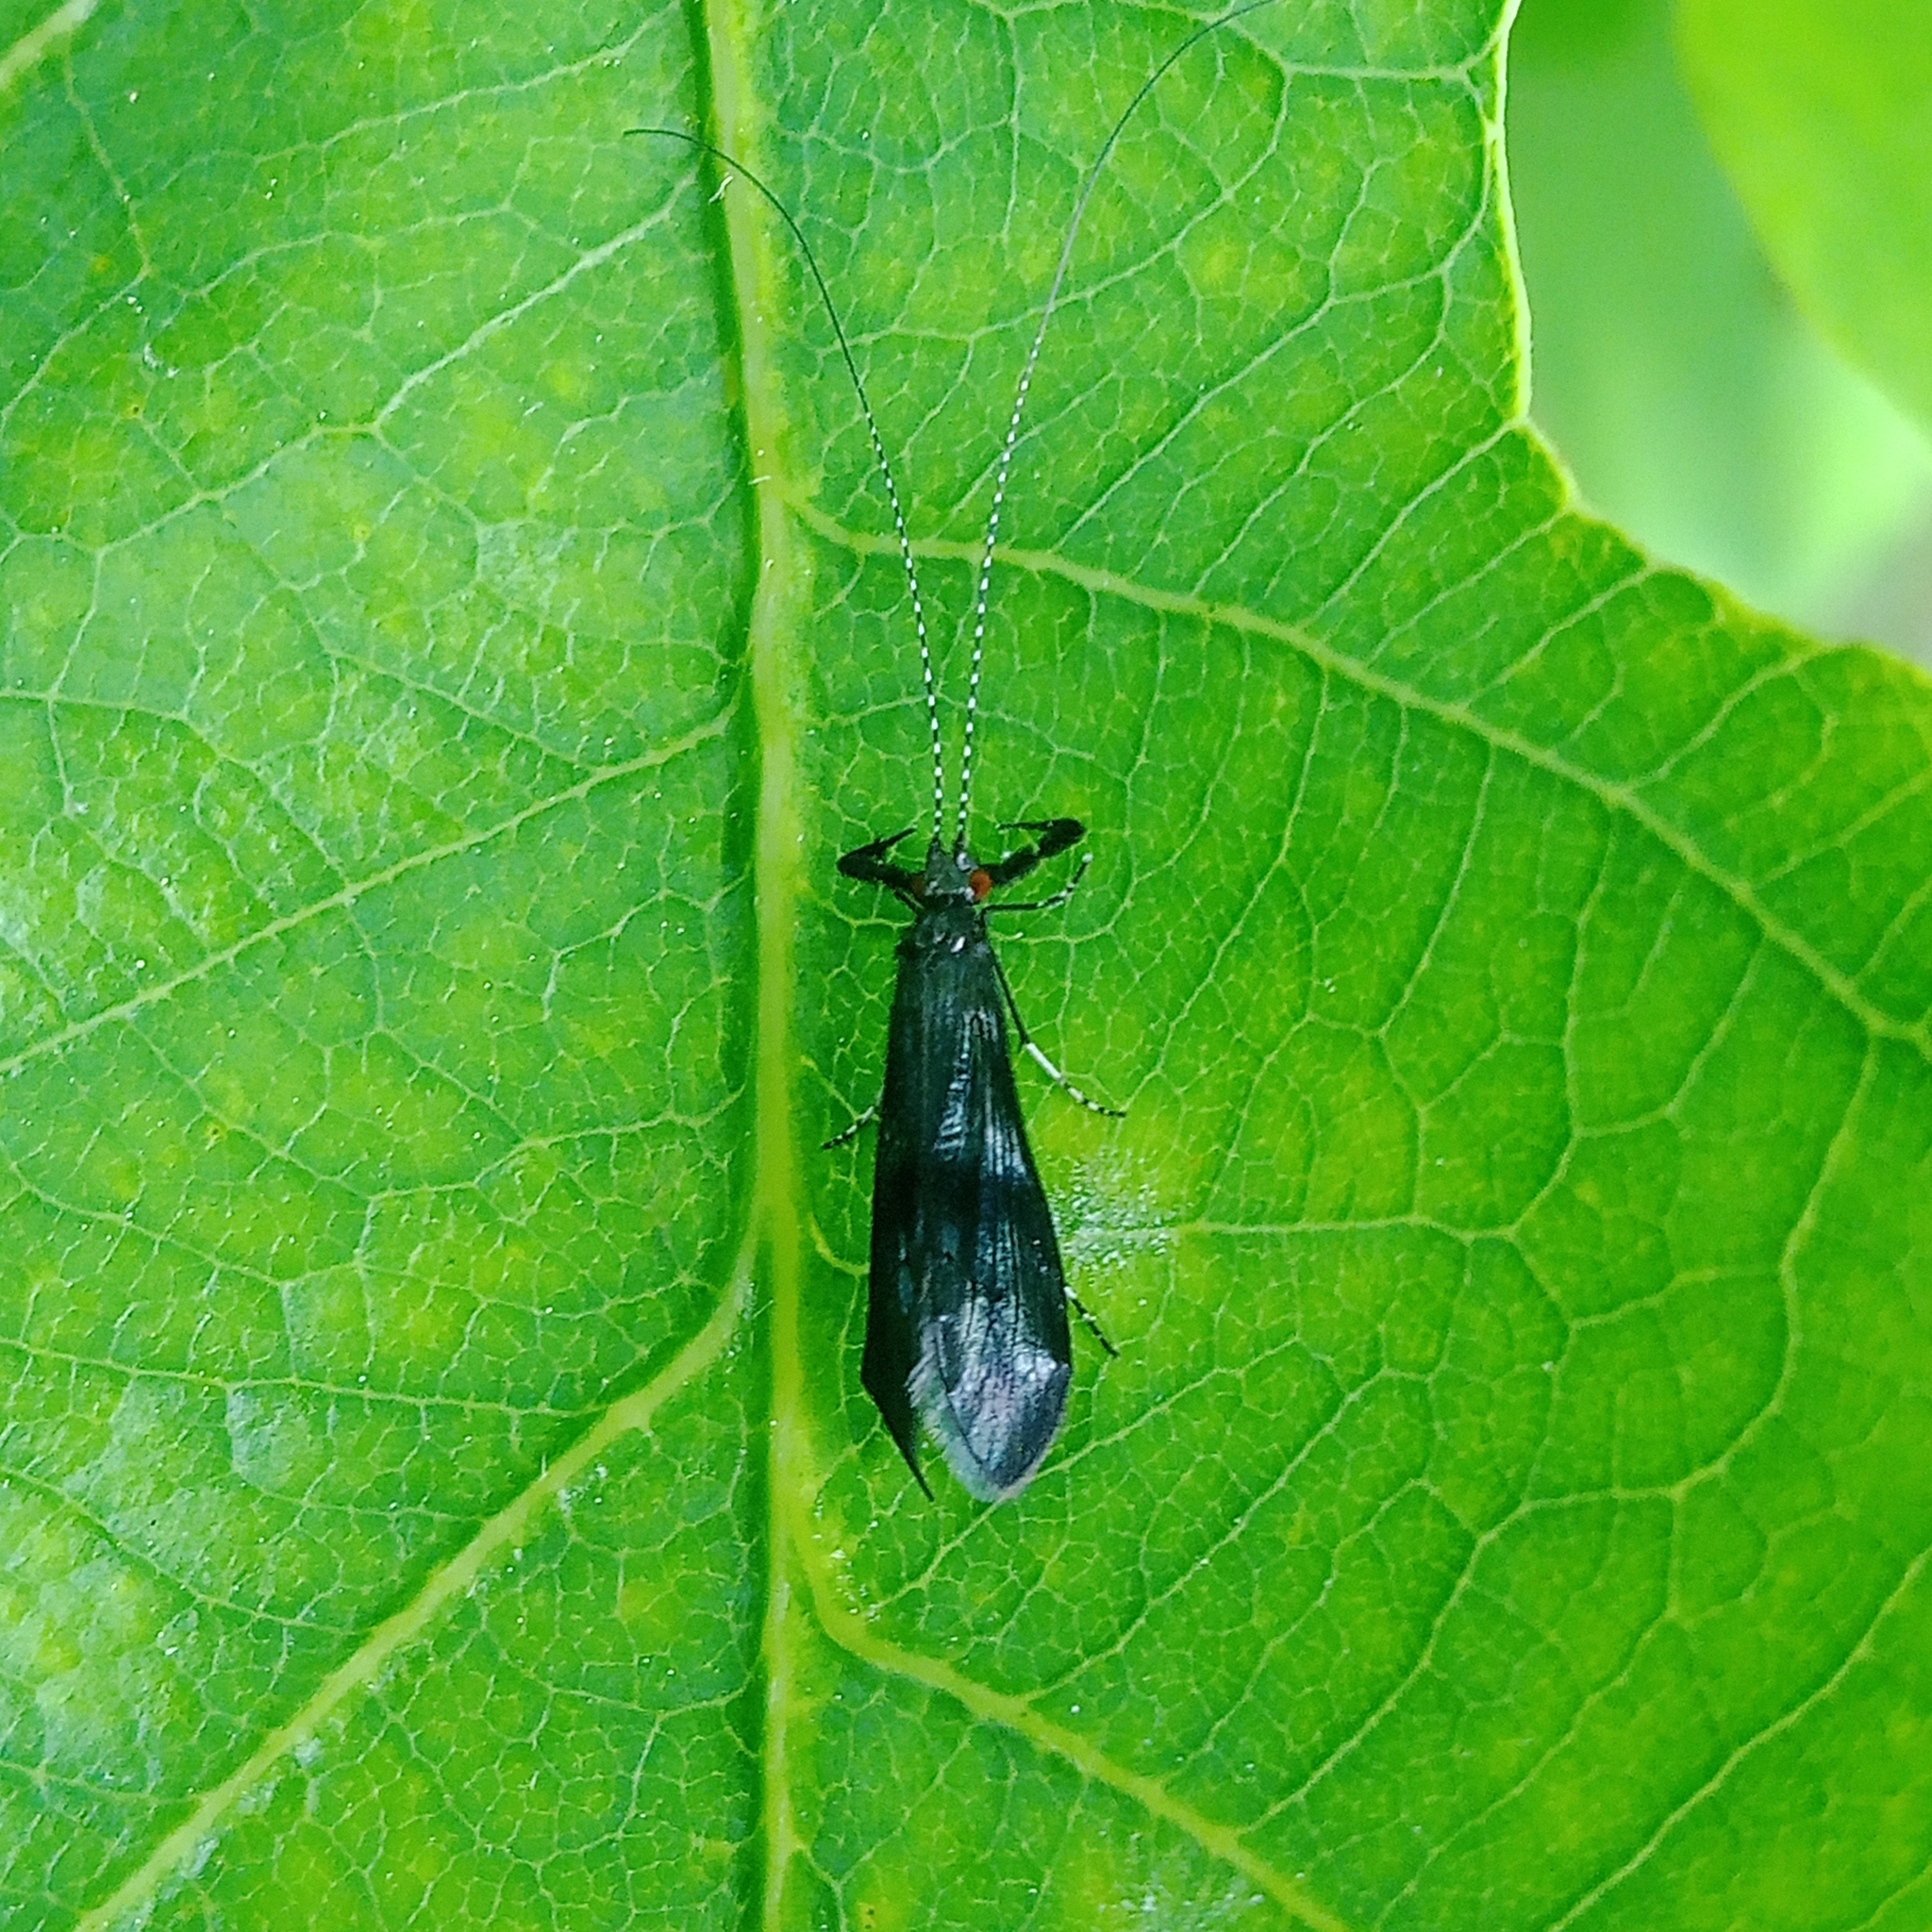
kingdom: Animalia
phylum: Arthropoda
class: Insecta
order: Trichoptera
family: Leptoceridae
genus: Mystacides
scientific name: Mystacides azureus
